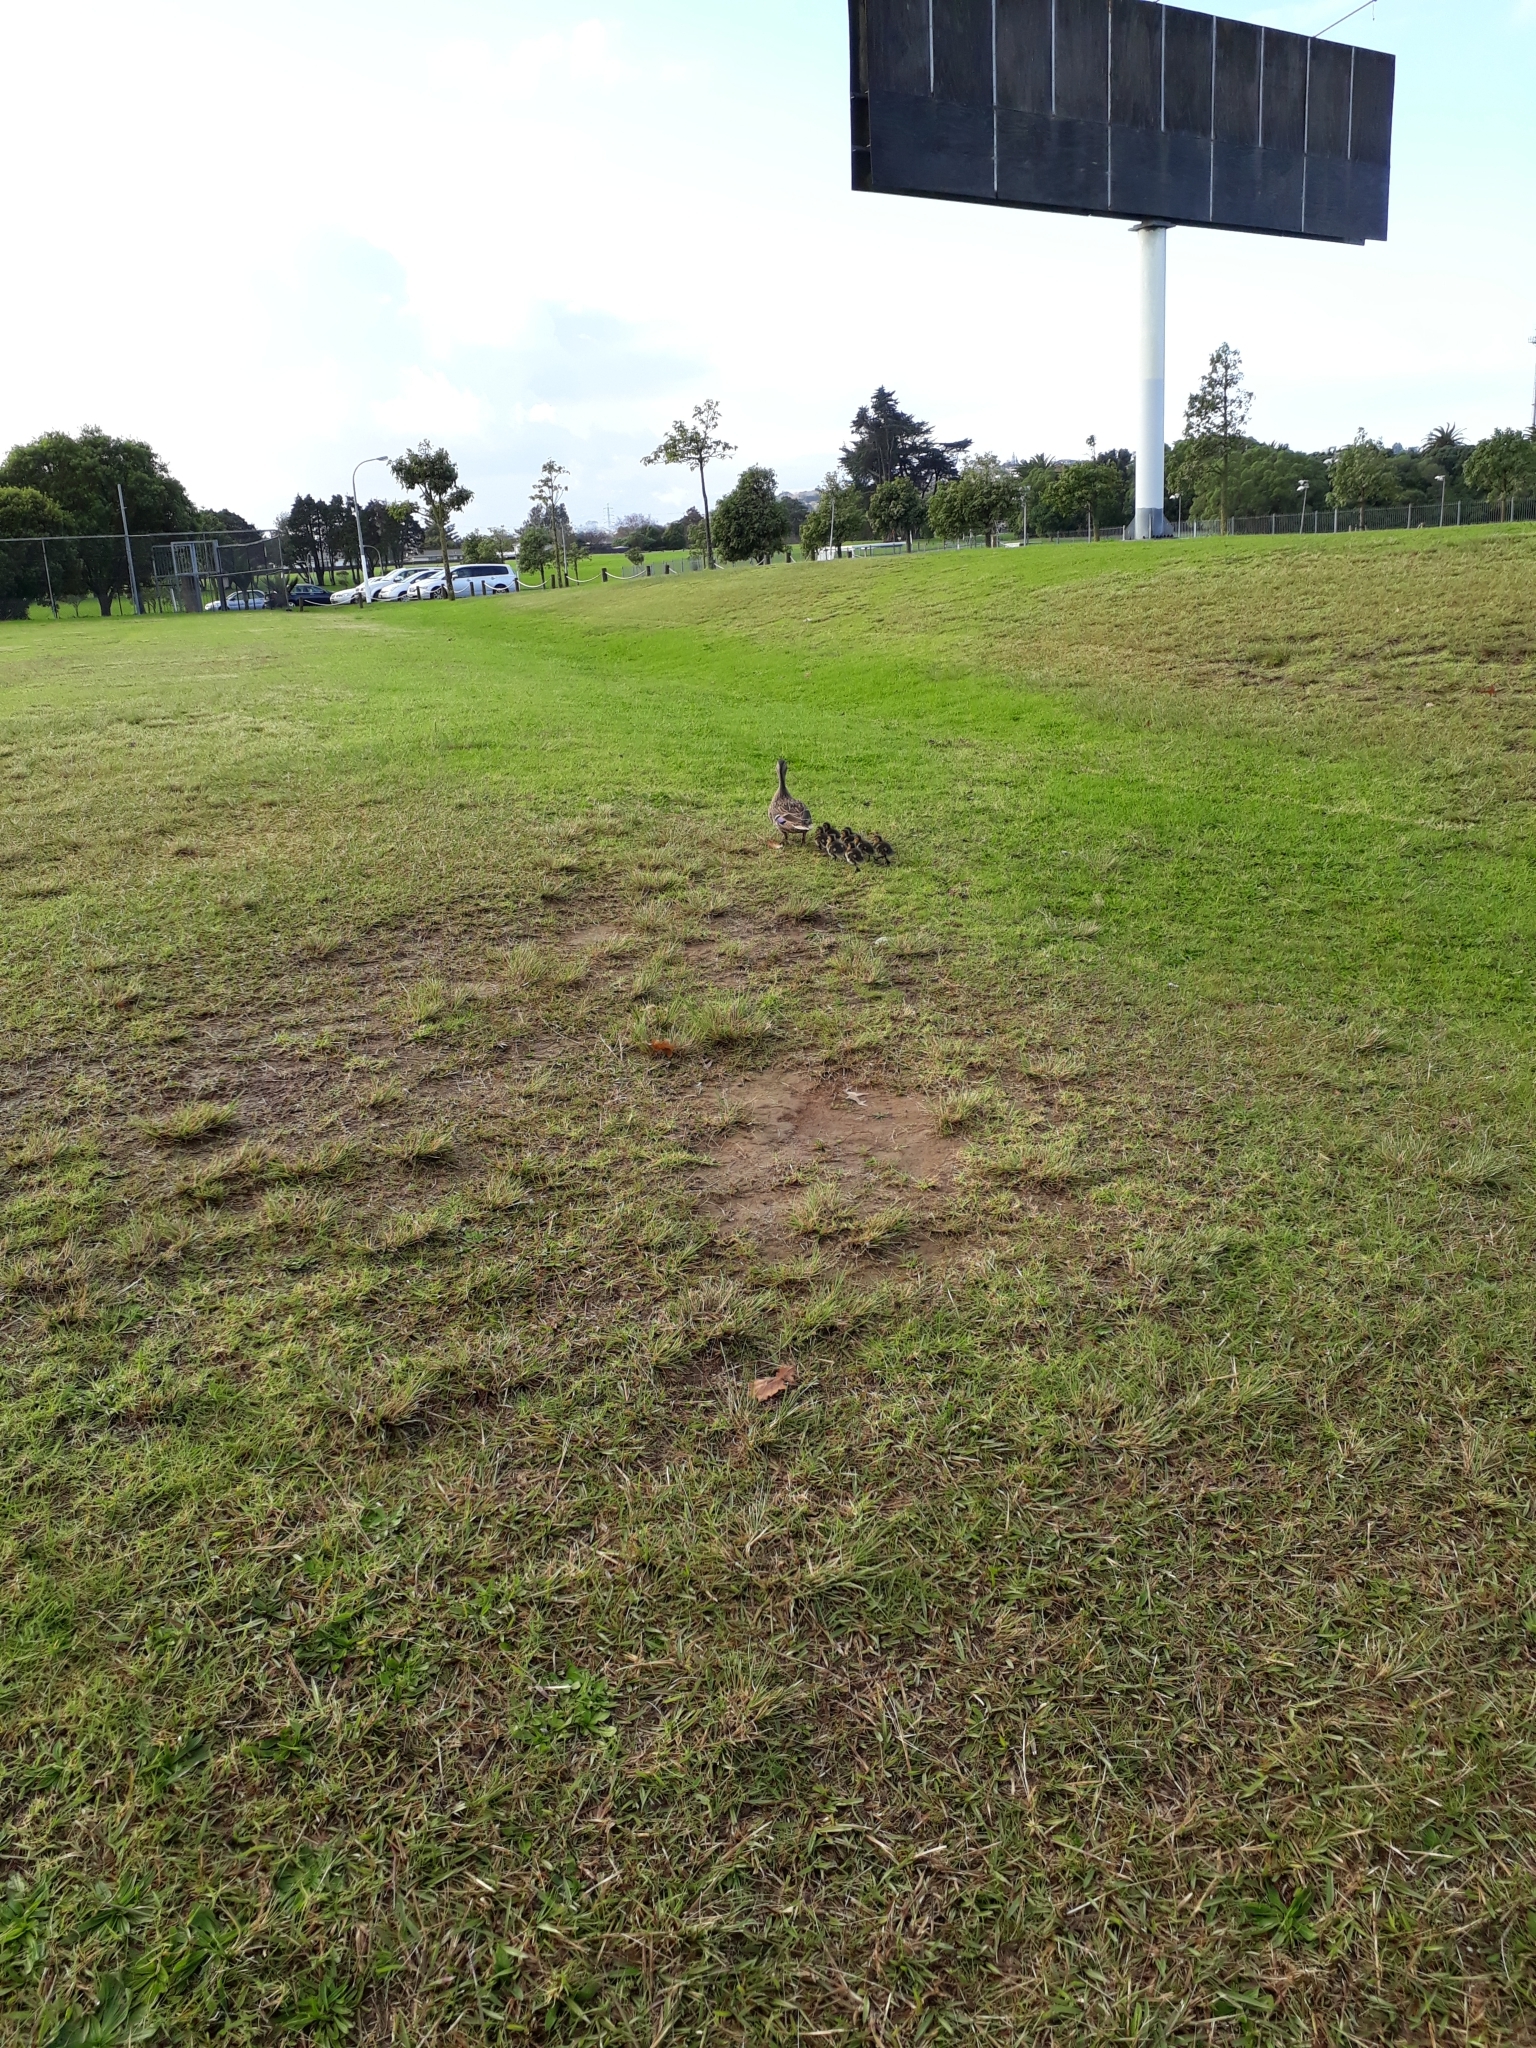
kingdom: Animalia
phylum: Chordata
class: Aves
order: Anseriformes
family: Anatidae
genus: Anas
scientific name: Anas platyrhynchos
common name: Mallard
